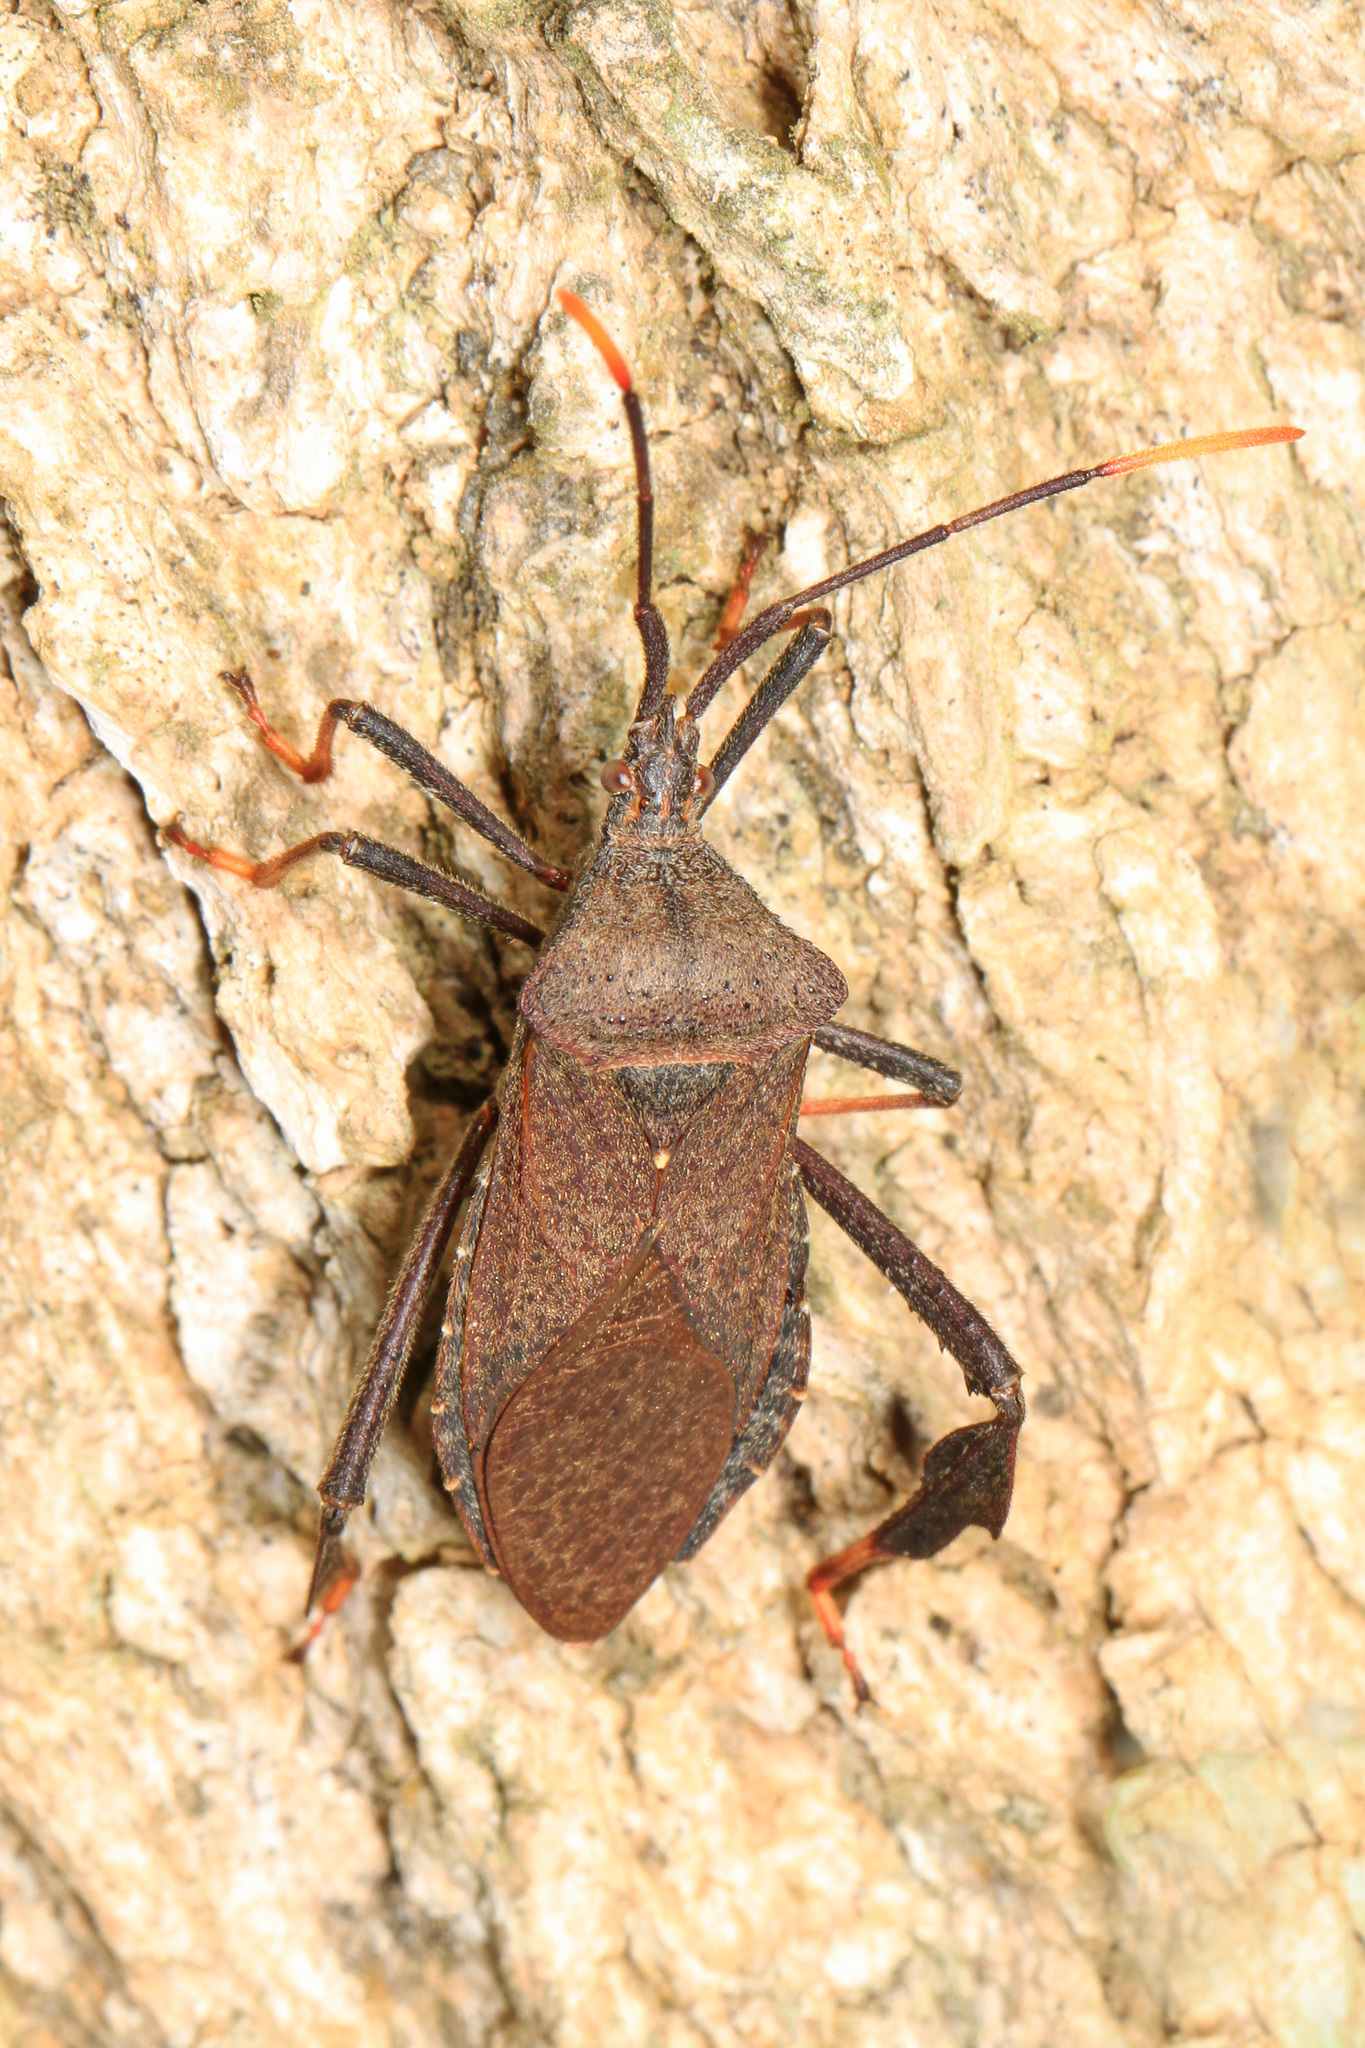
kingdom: Animalia
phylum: Arthropoda
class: Insecta
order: Hemiptera
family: Coreidae
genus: Acanthocephala
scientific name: Acanthocephala terminalis
